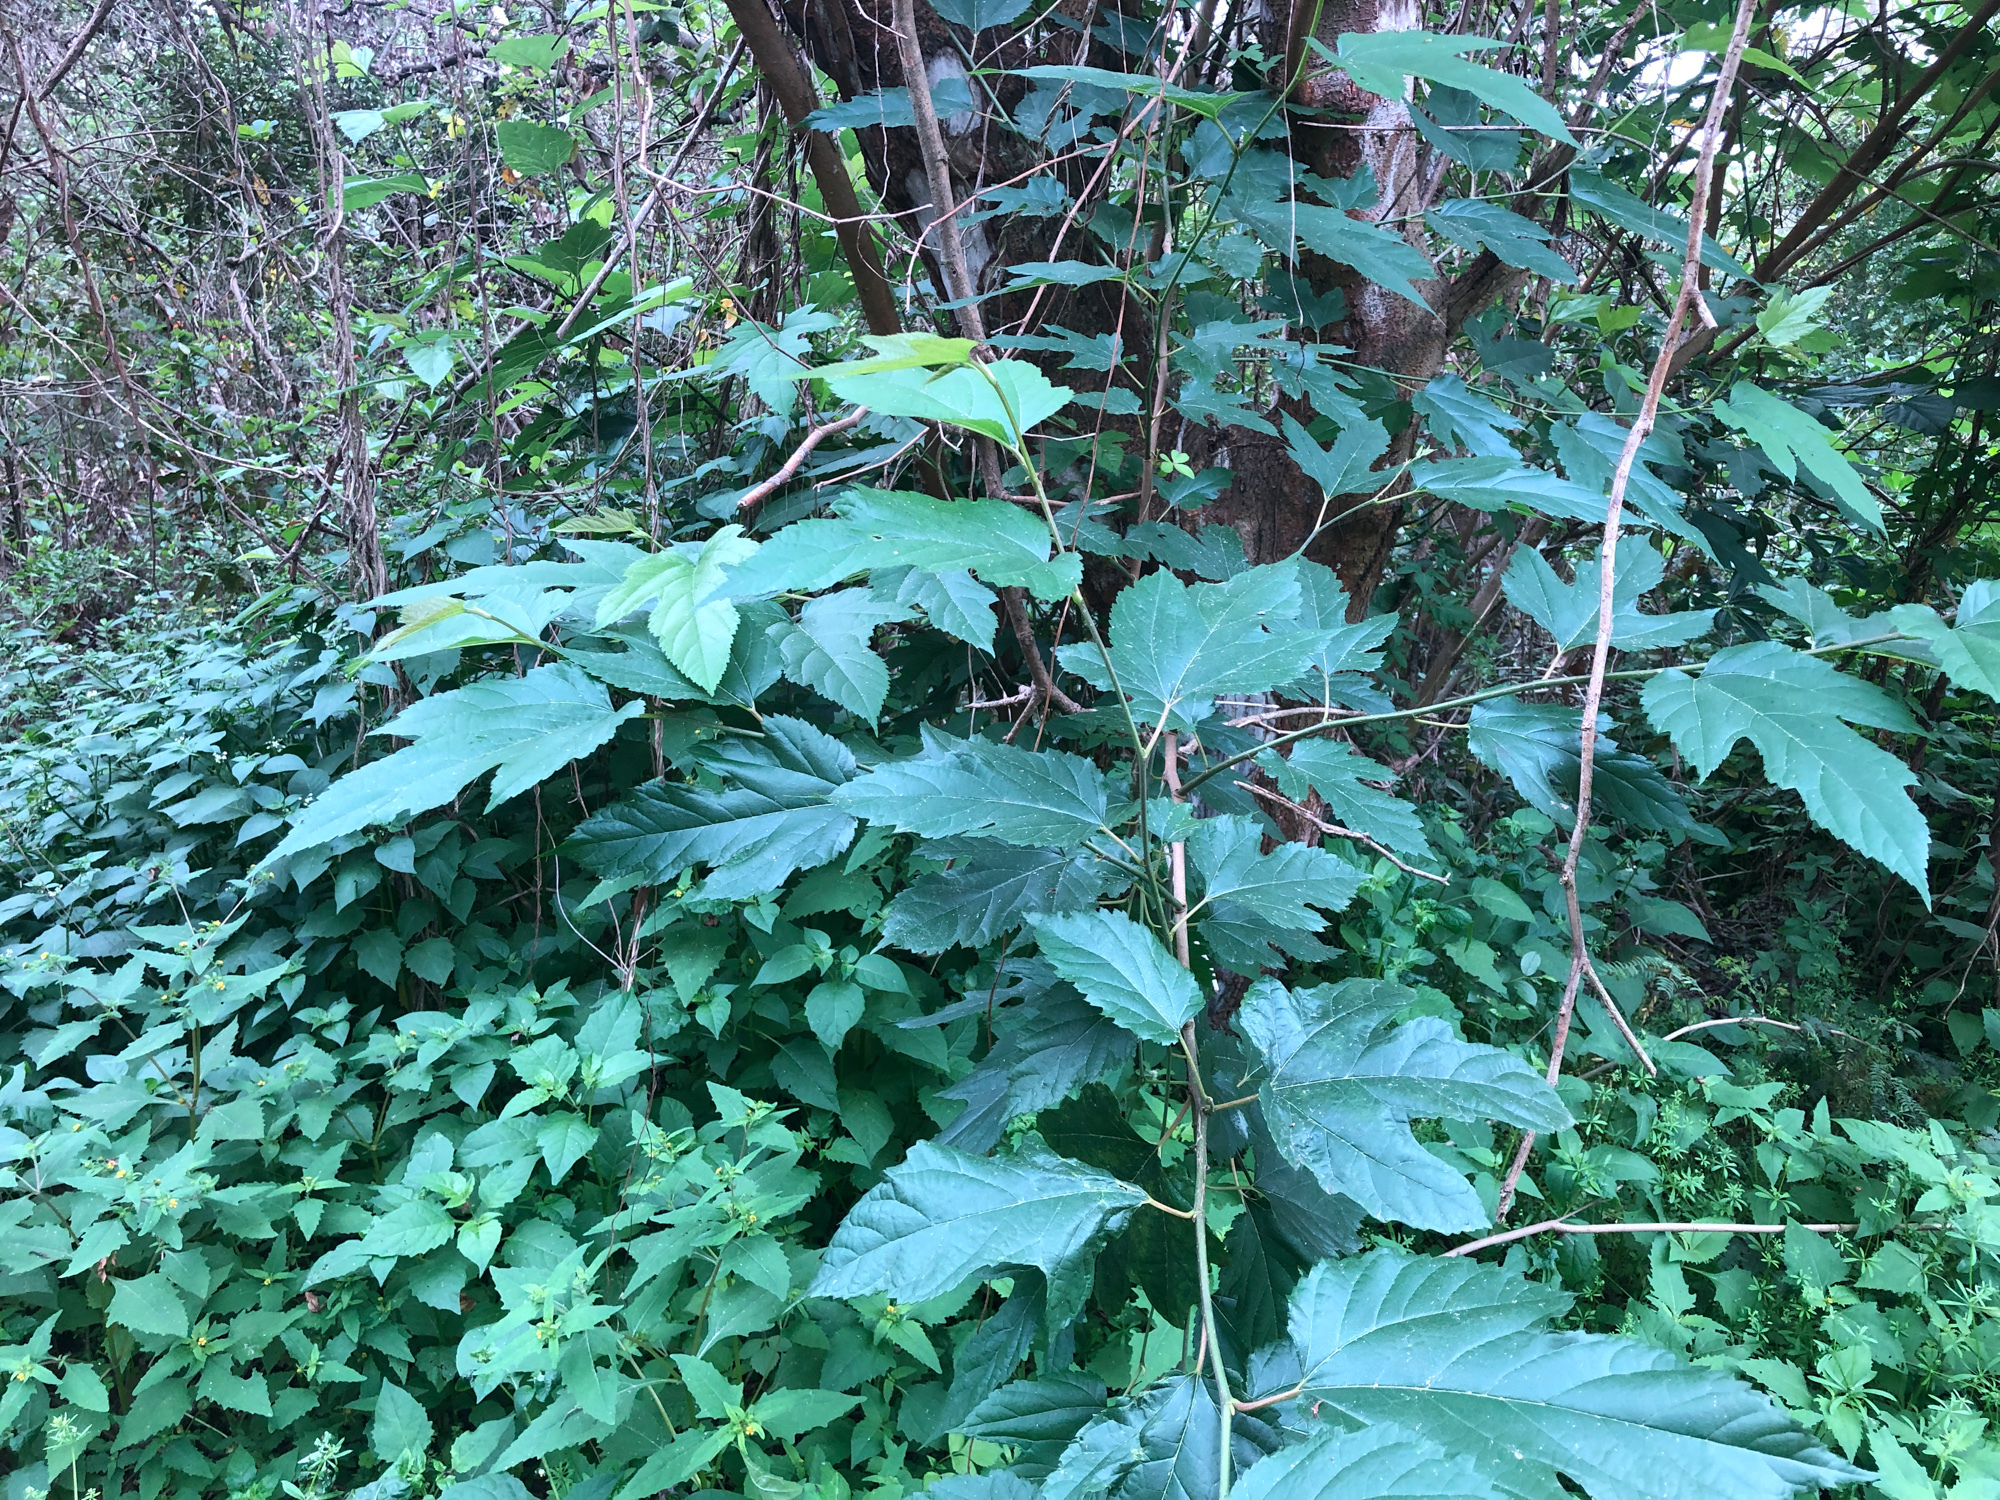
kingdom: Plantae
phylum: Tracheophyta
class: Magnoliopsida
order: Rosales
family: Moraceae
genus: Morus
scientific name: Morus indica
